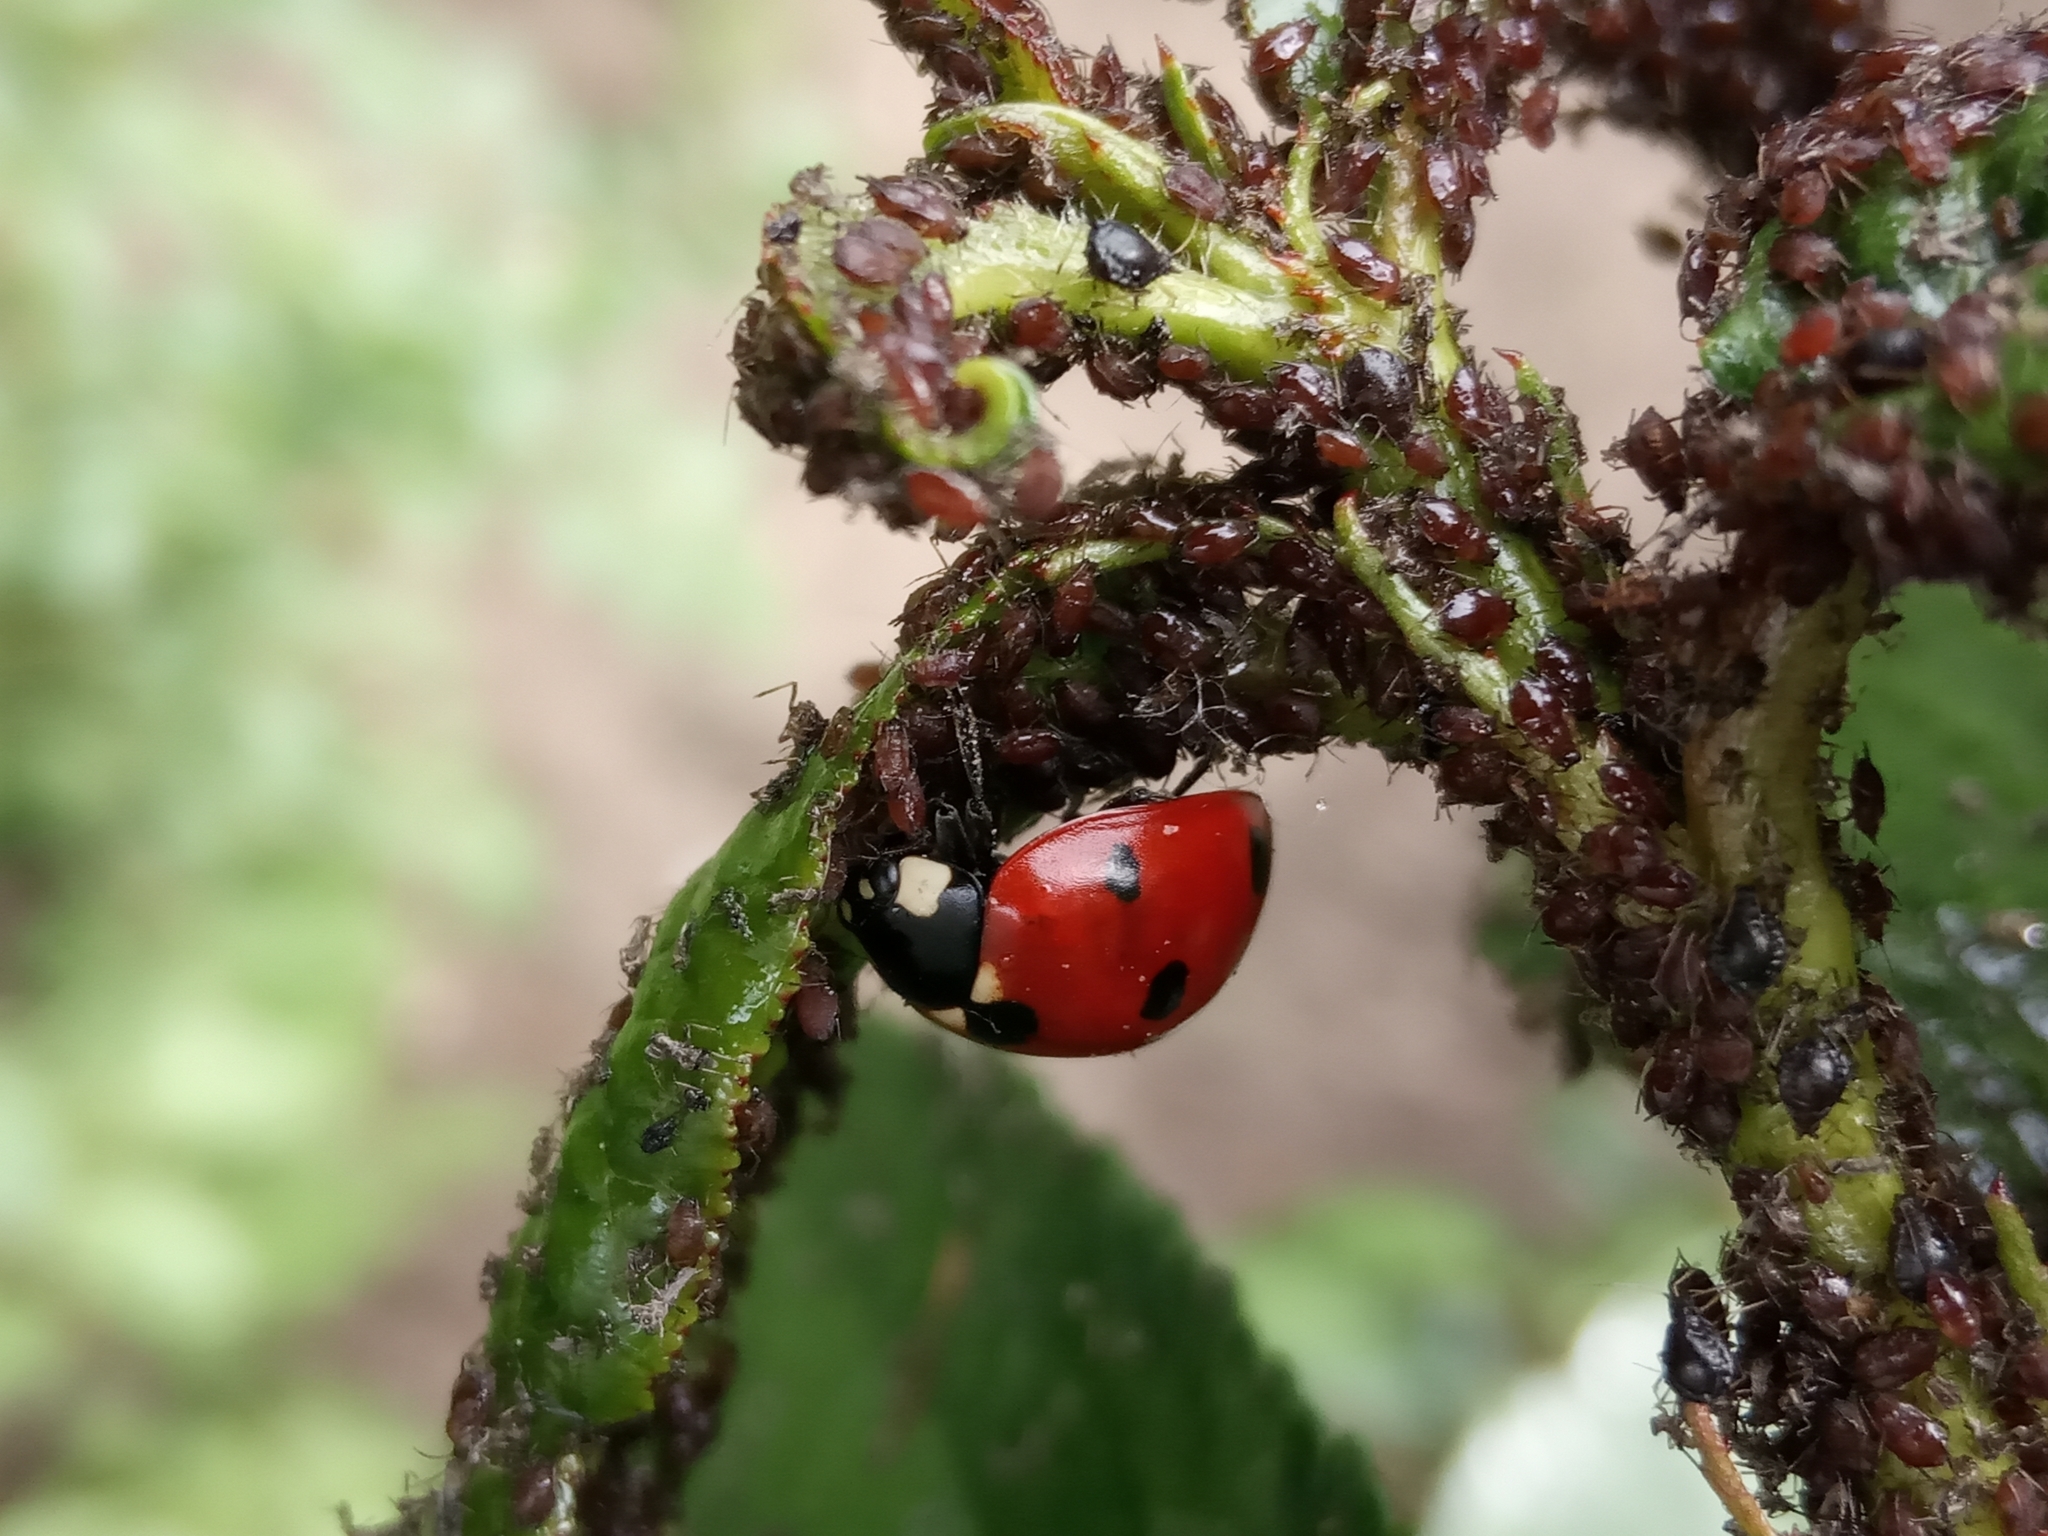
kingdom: Animalia
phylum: Arthropoda
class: Insecta
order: Coleoptera
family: Coccinellidae
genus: Coccinella
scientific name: Coccinella septempunctata
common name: Sevenspotted lady beetle
